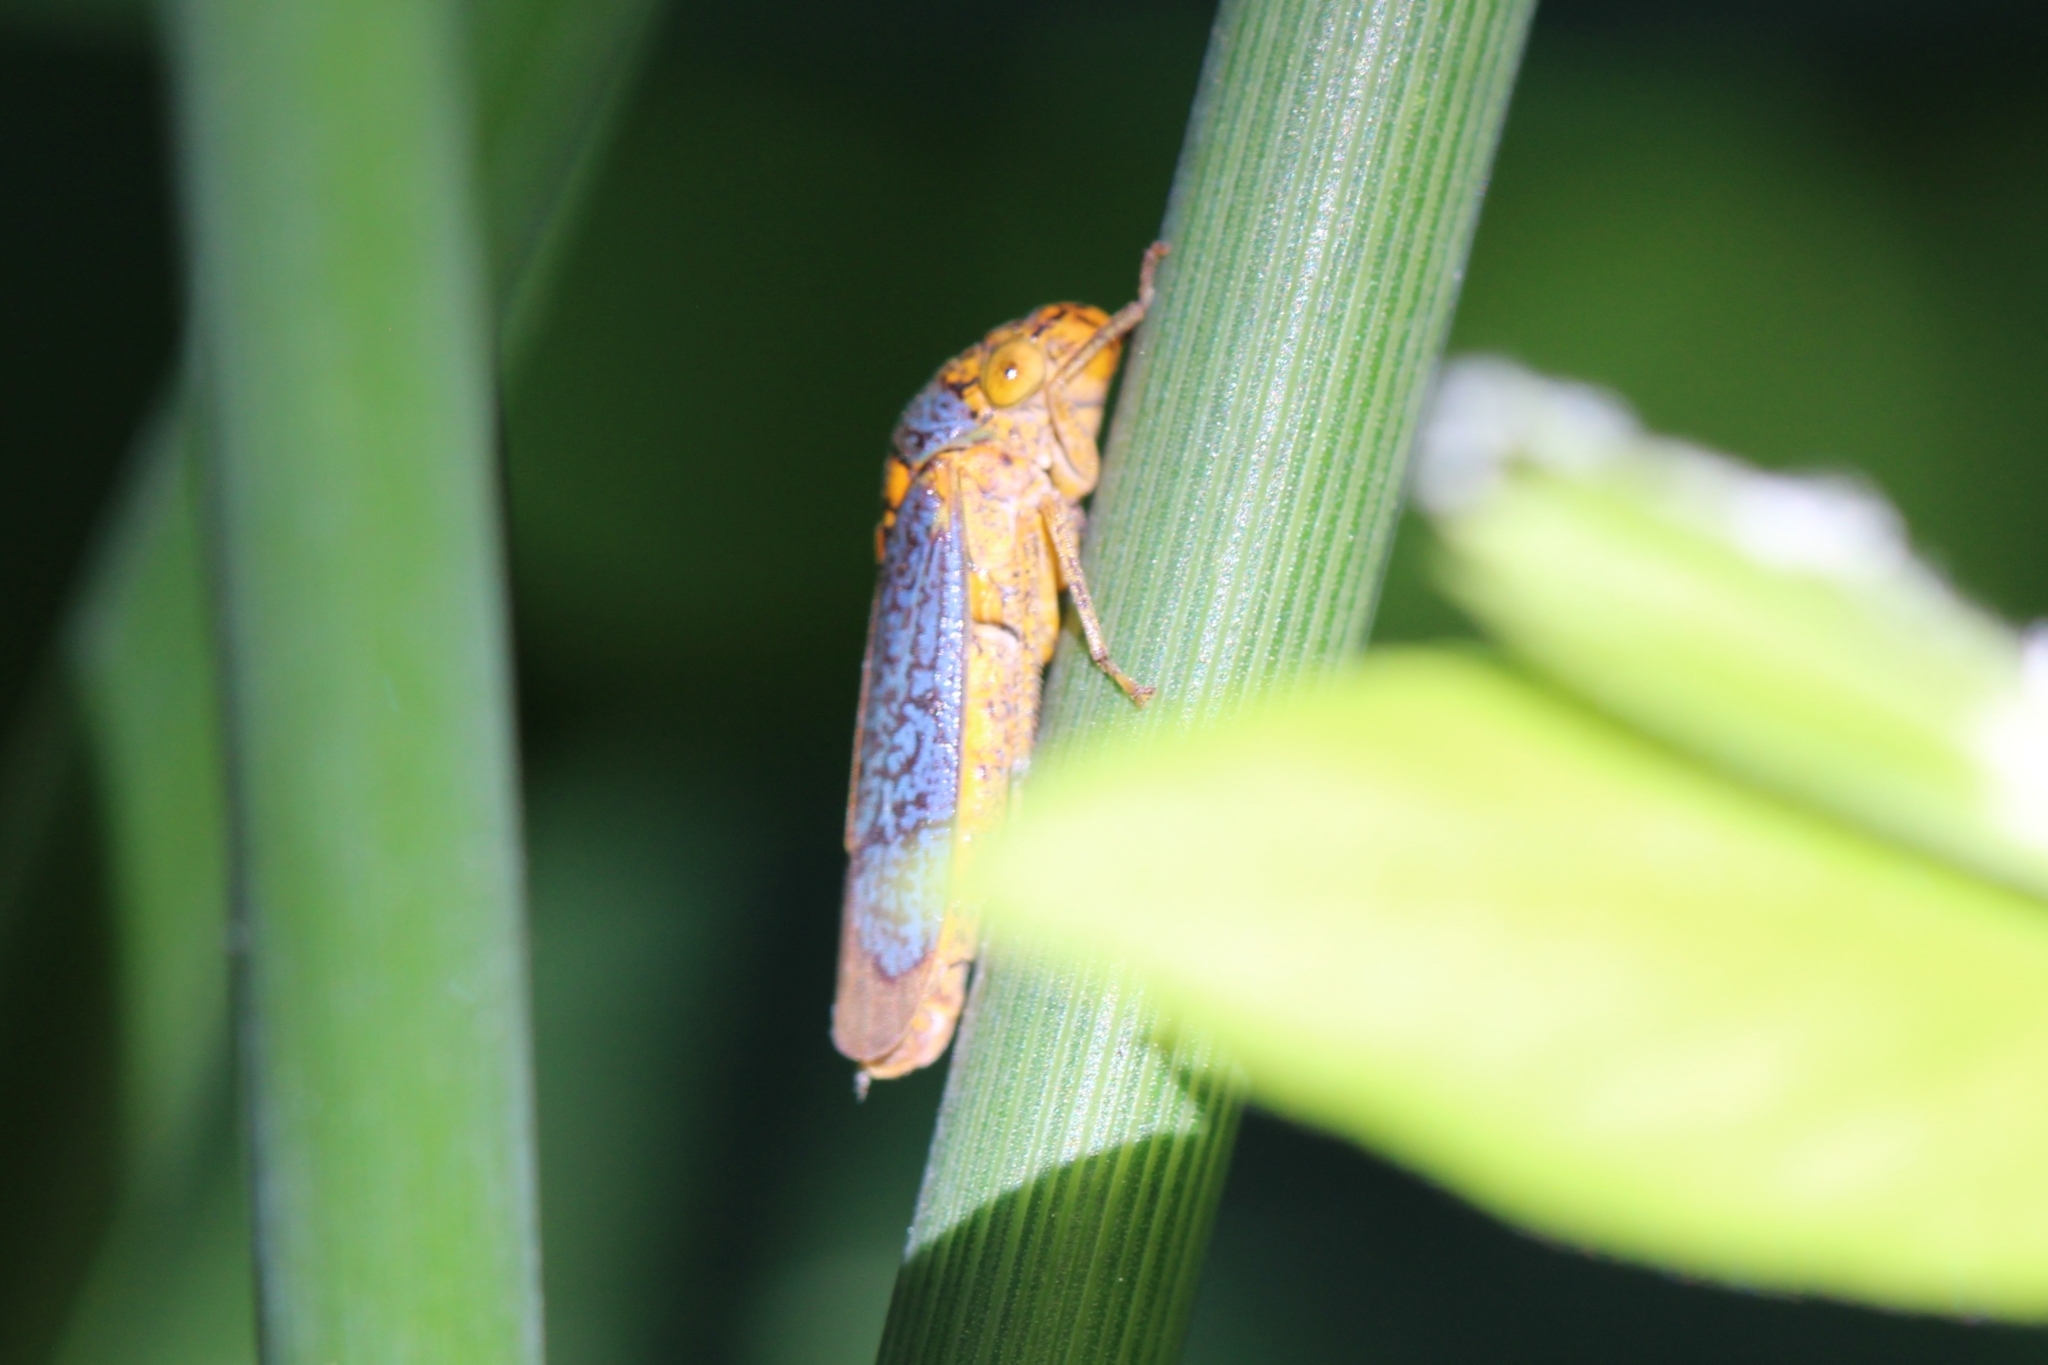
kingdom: Animalia
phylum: Arthropoda
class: Insecta
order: Hemiptera
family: Cicadellidae
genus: Oncometopia
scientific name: Oncometopia orbona
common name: Broad-headed sharpshooter
